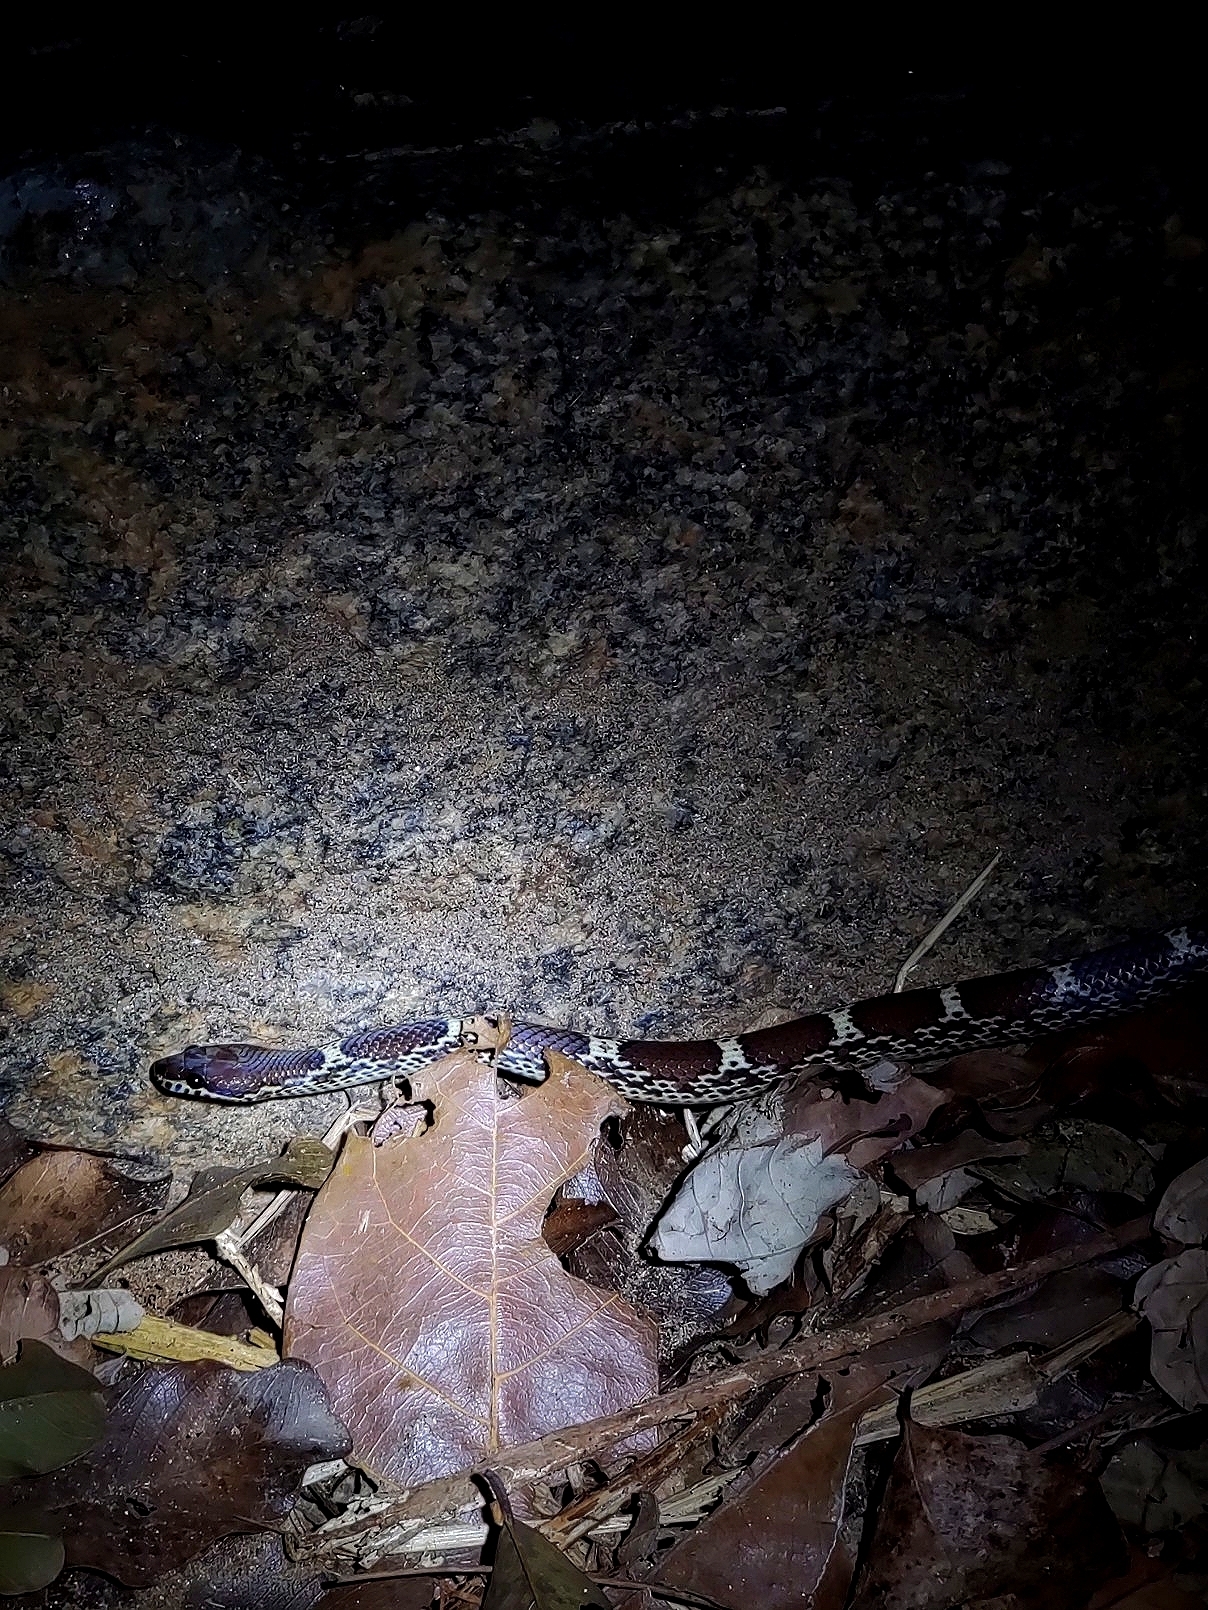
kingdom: Animalia
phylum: Chordata
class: Squamata
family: Colubridae
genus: Lycodon
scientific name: Lycodon fasciolatus
